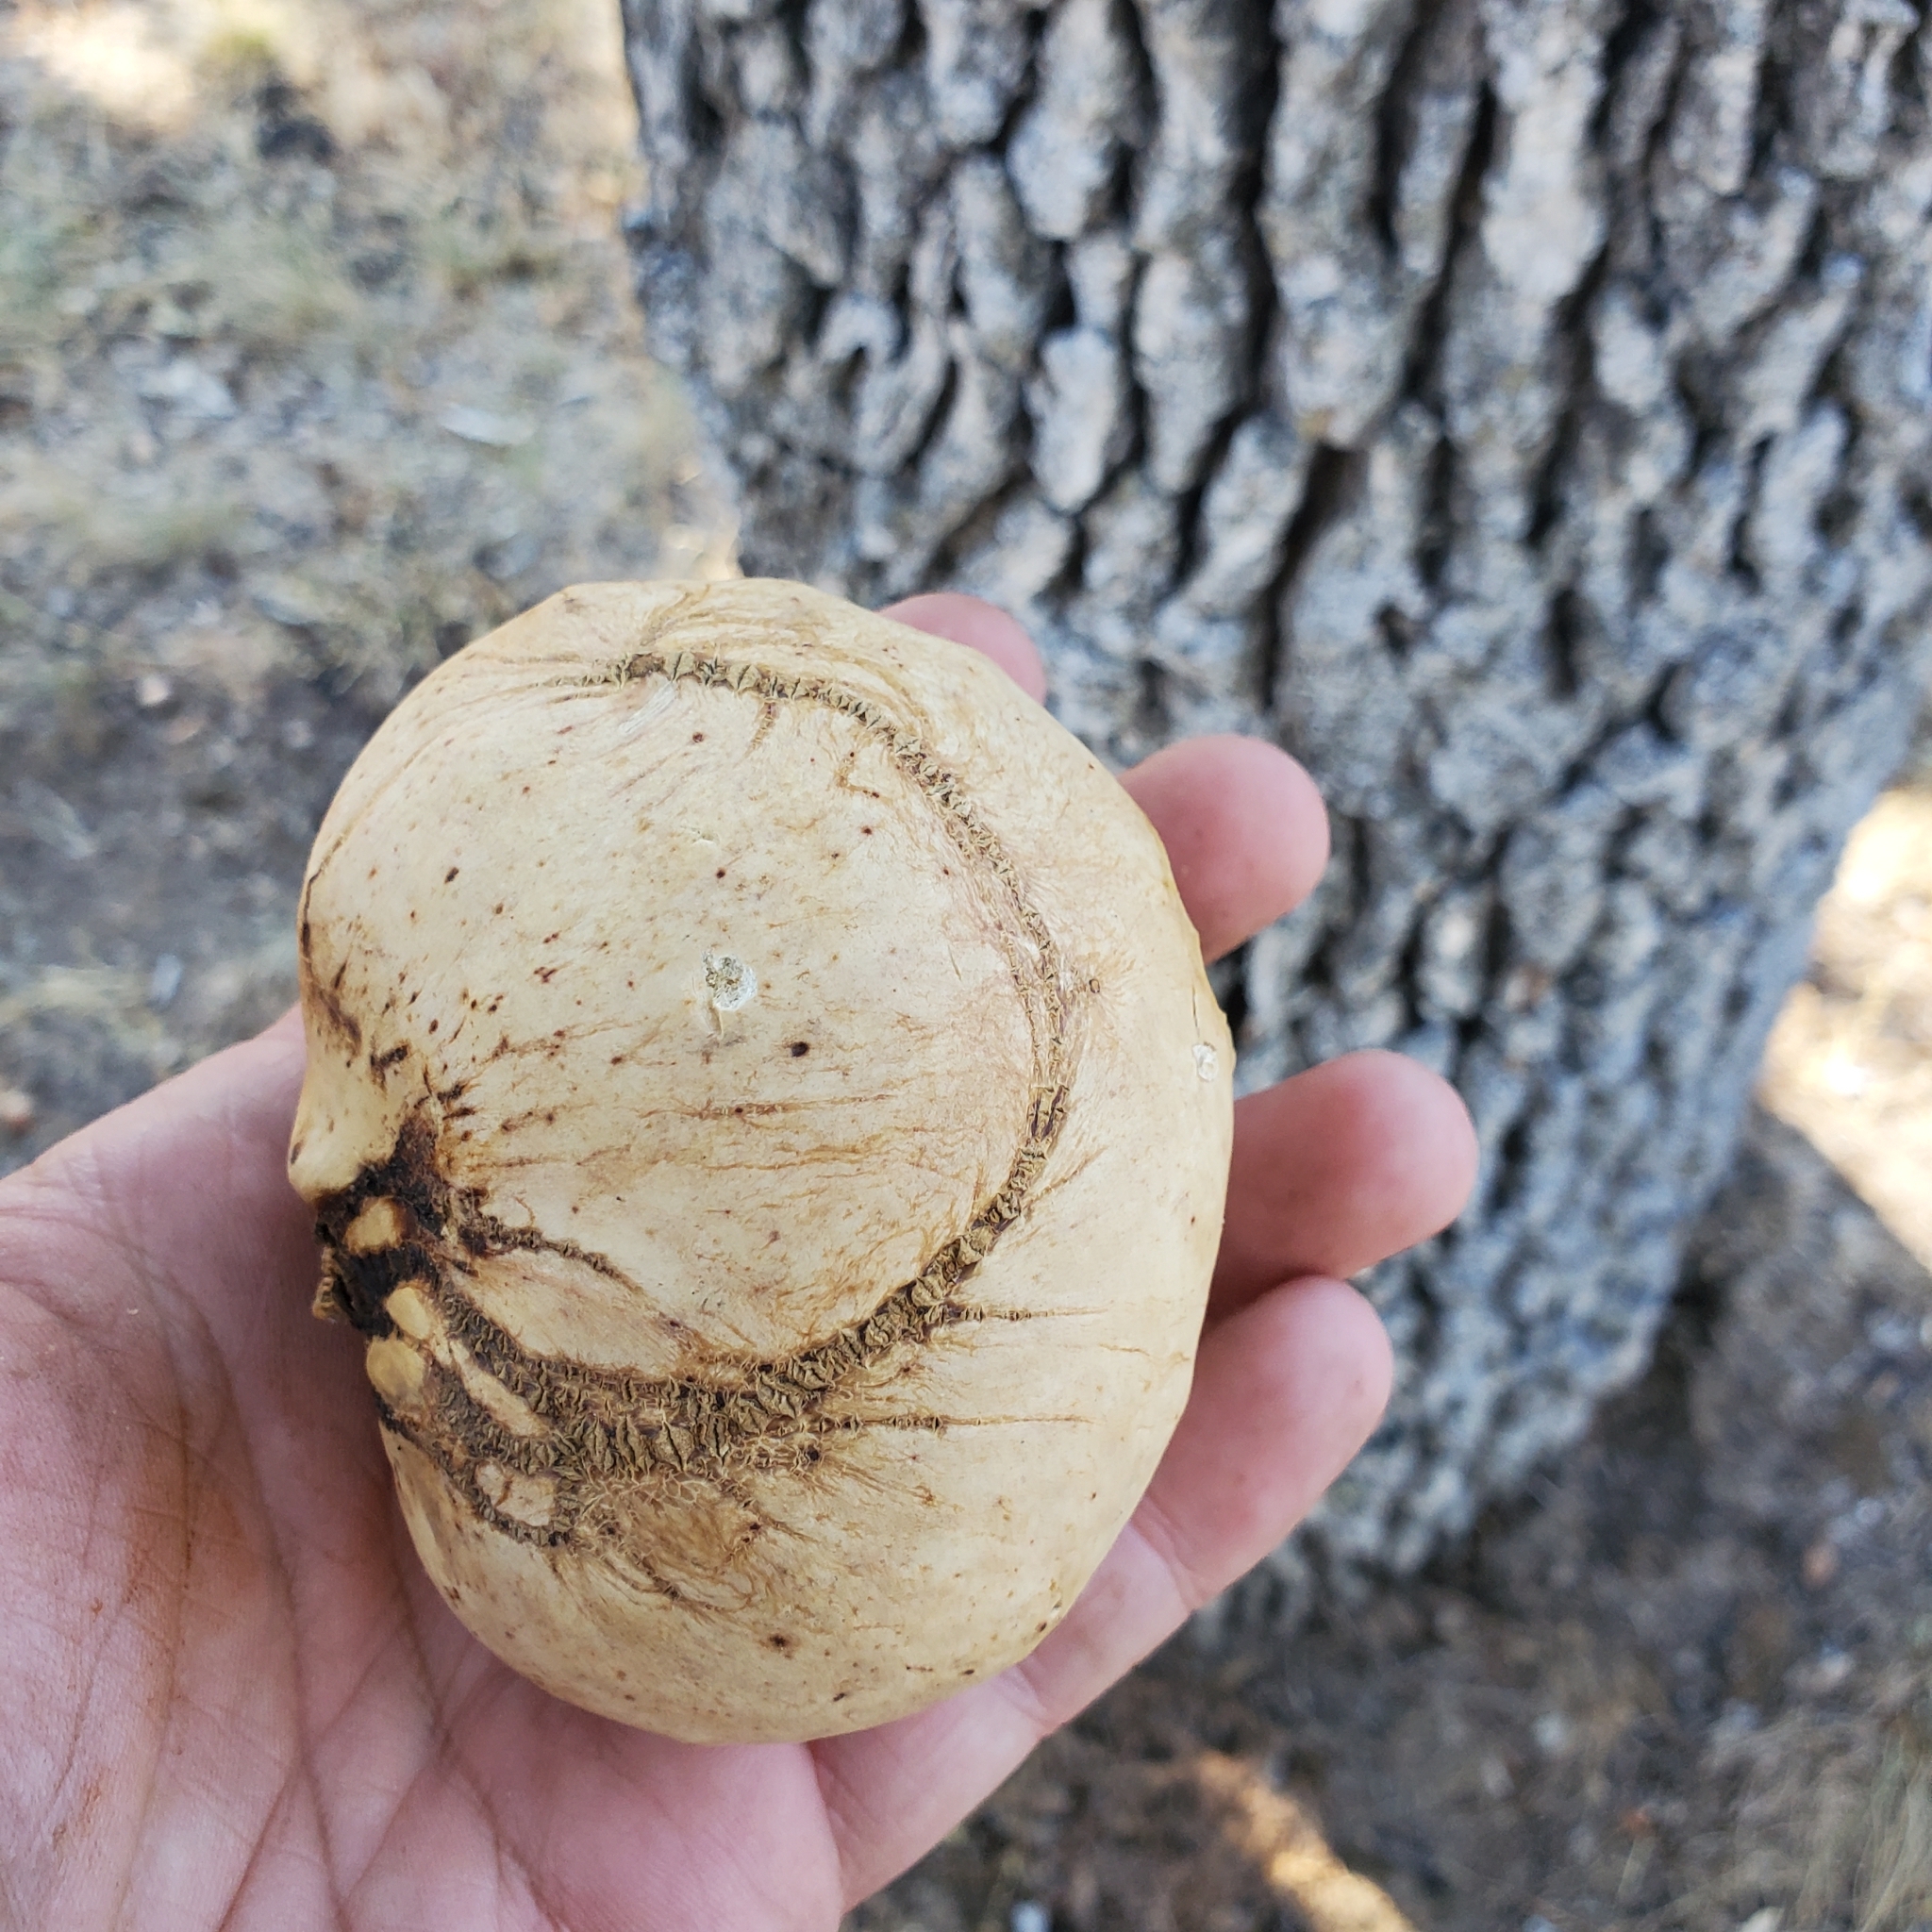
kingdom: Animalia
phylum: Arthropoda
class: Insecta
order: Hymenoptera
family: Cynipidae
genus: Andricus
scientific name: Andricus quercuscalifornicus
